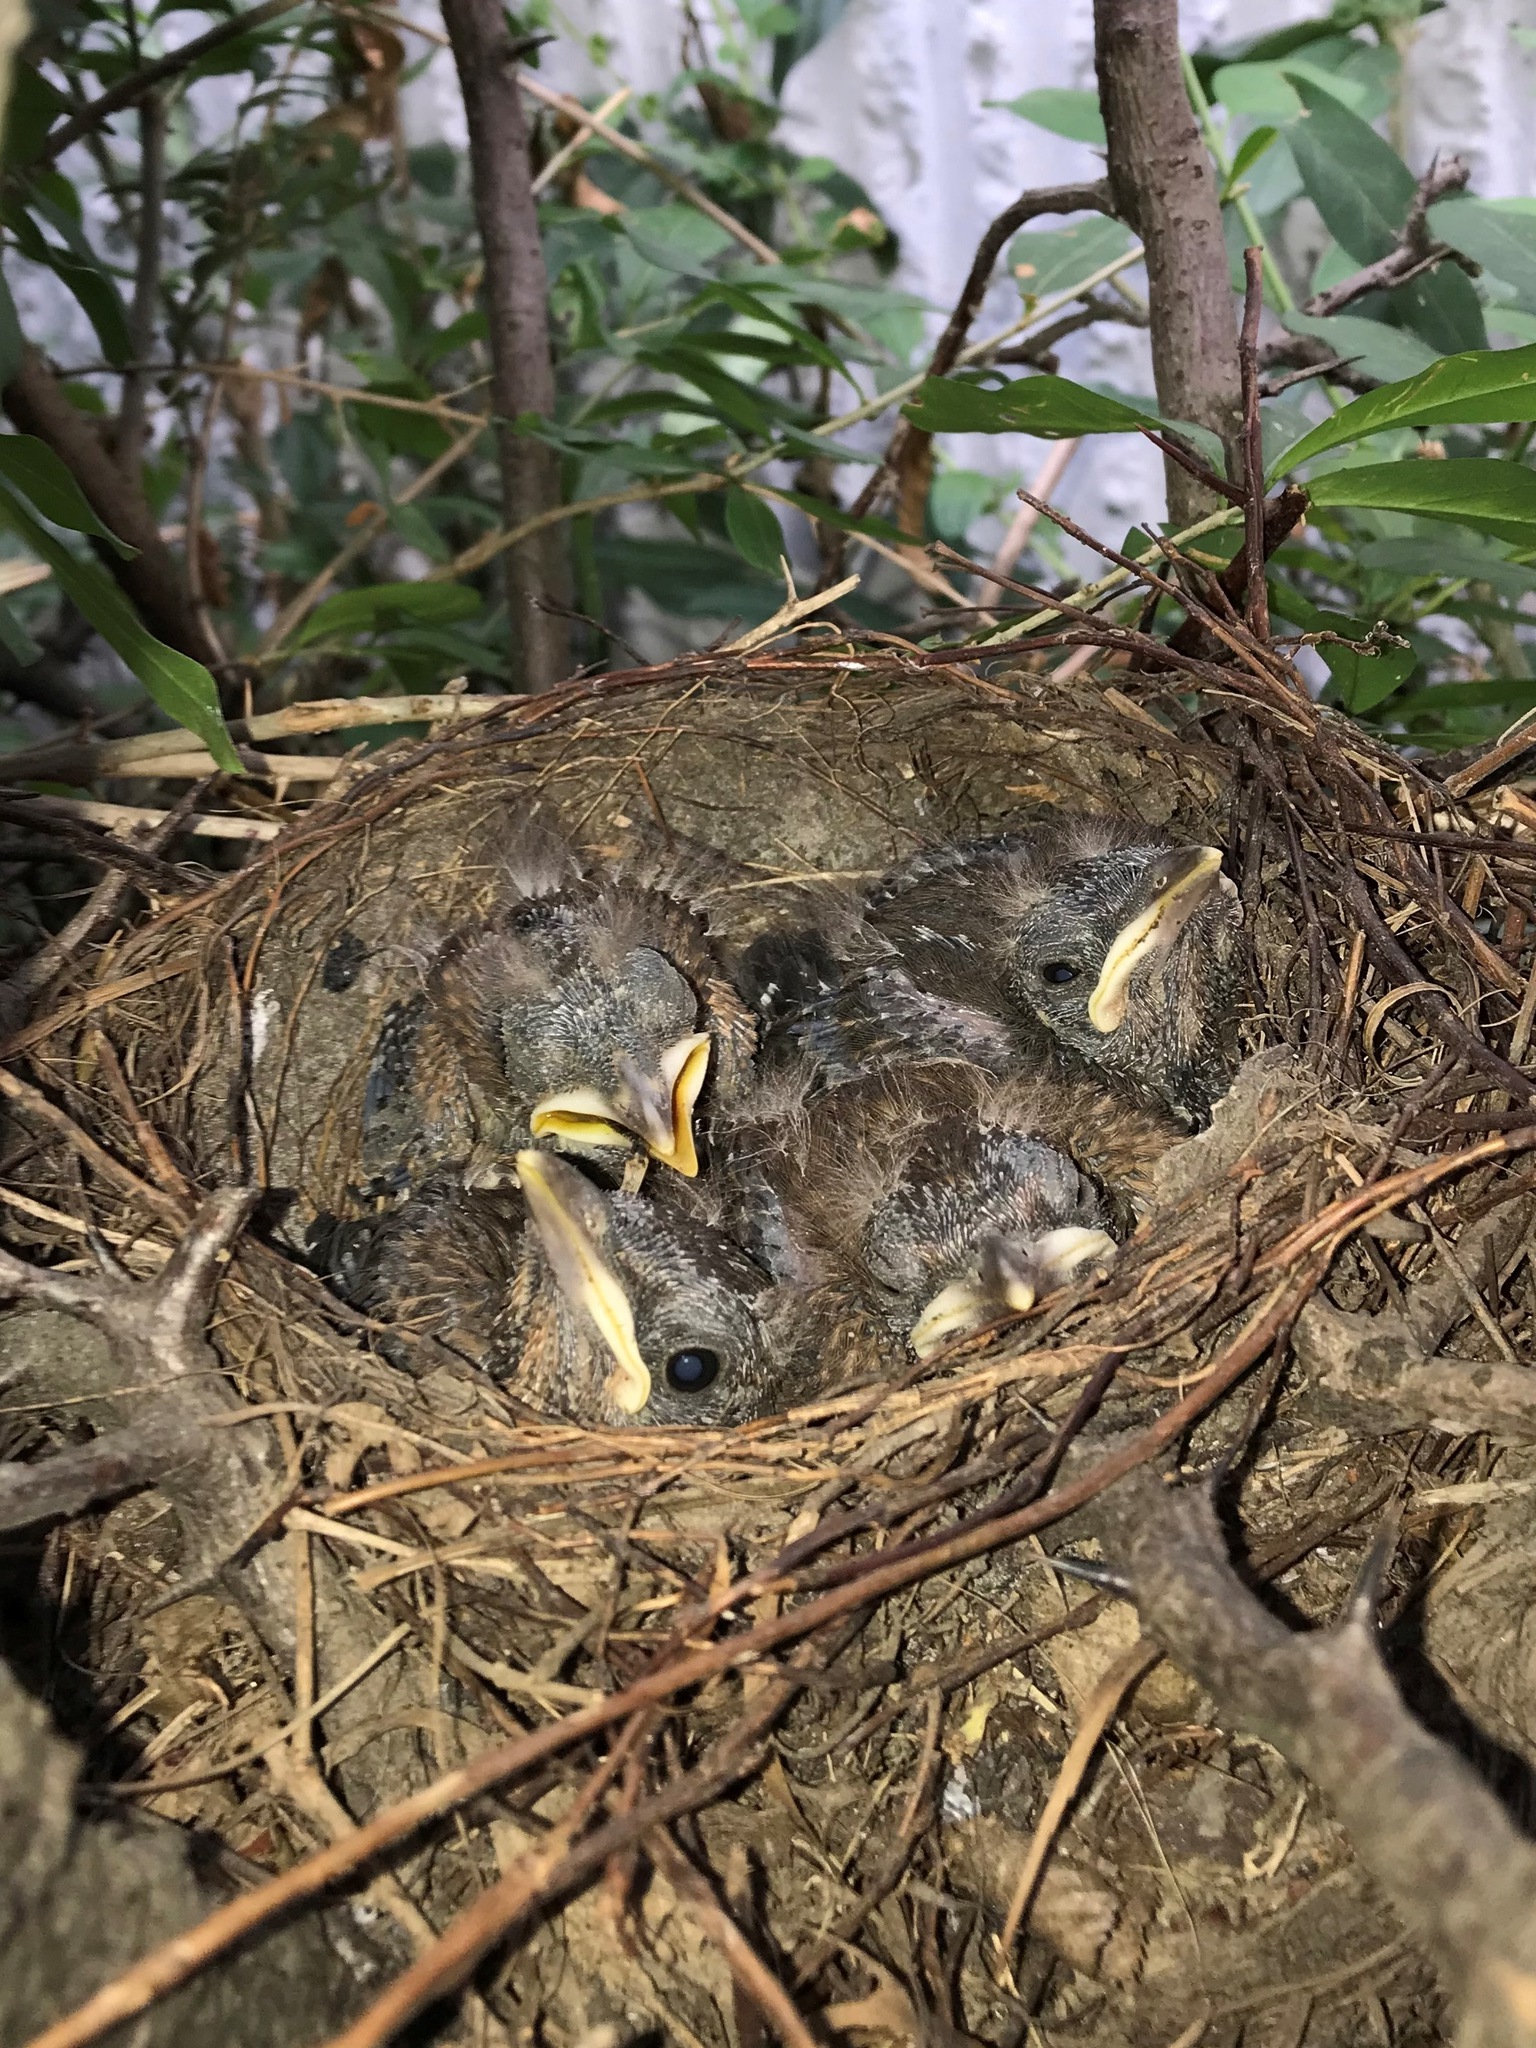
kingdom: Animalia
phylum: Chordata
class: Aves
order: Passeriformes
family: Turdidae
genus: Turdus
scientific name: Turdus merula
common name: Common blackbird
